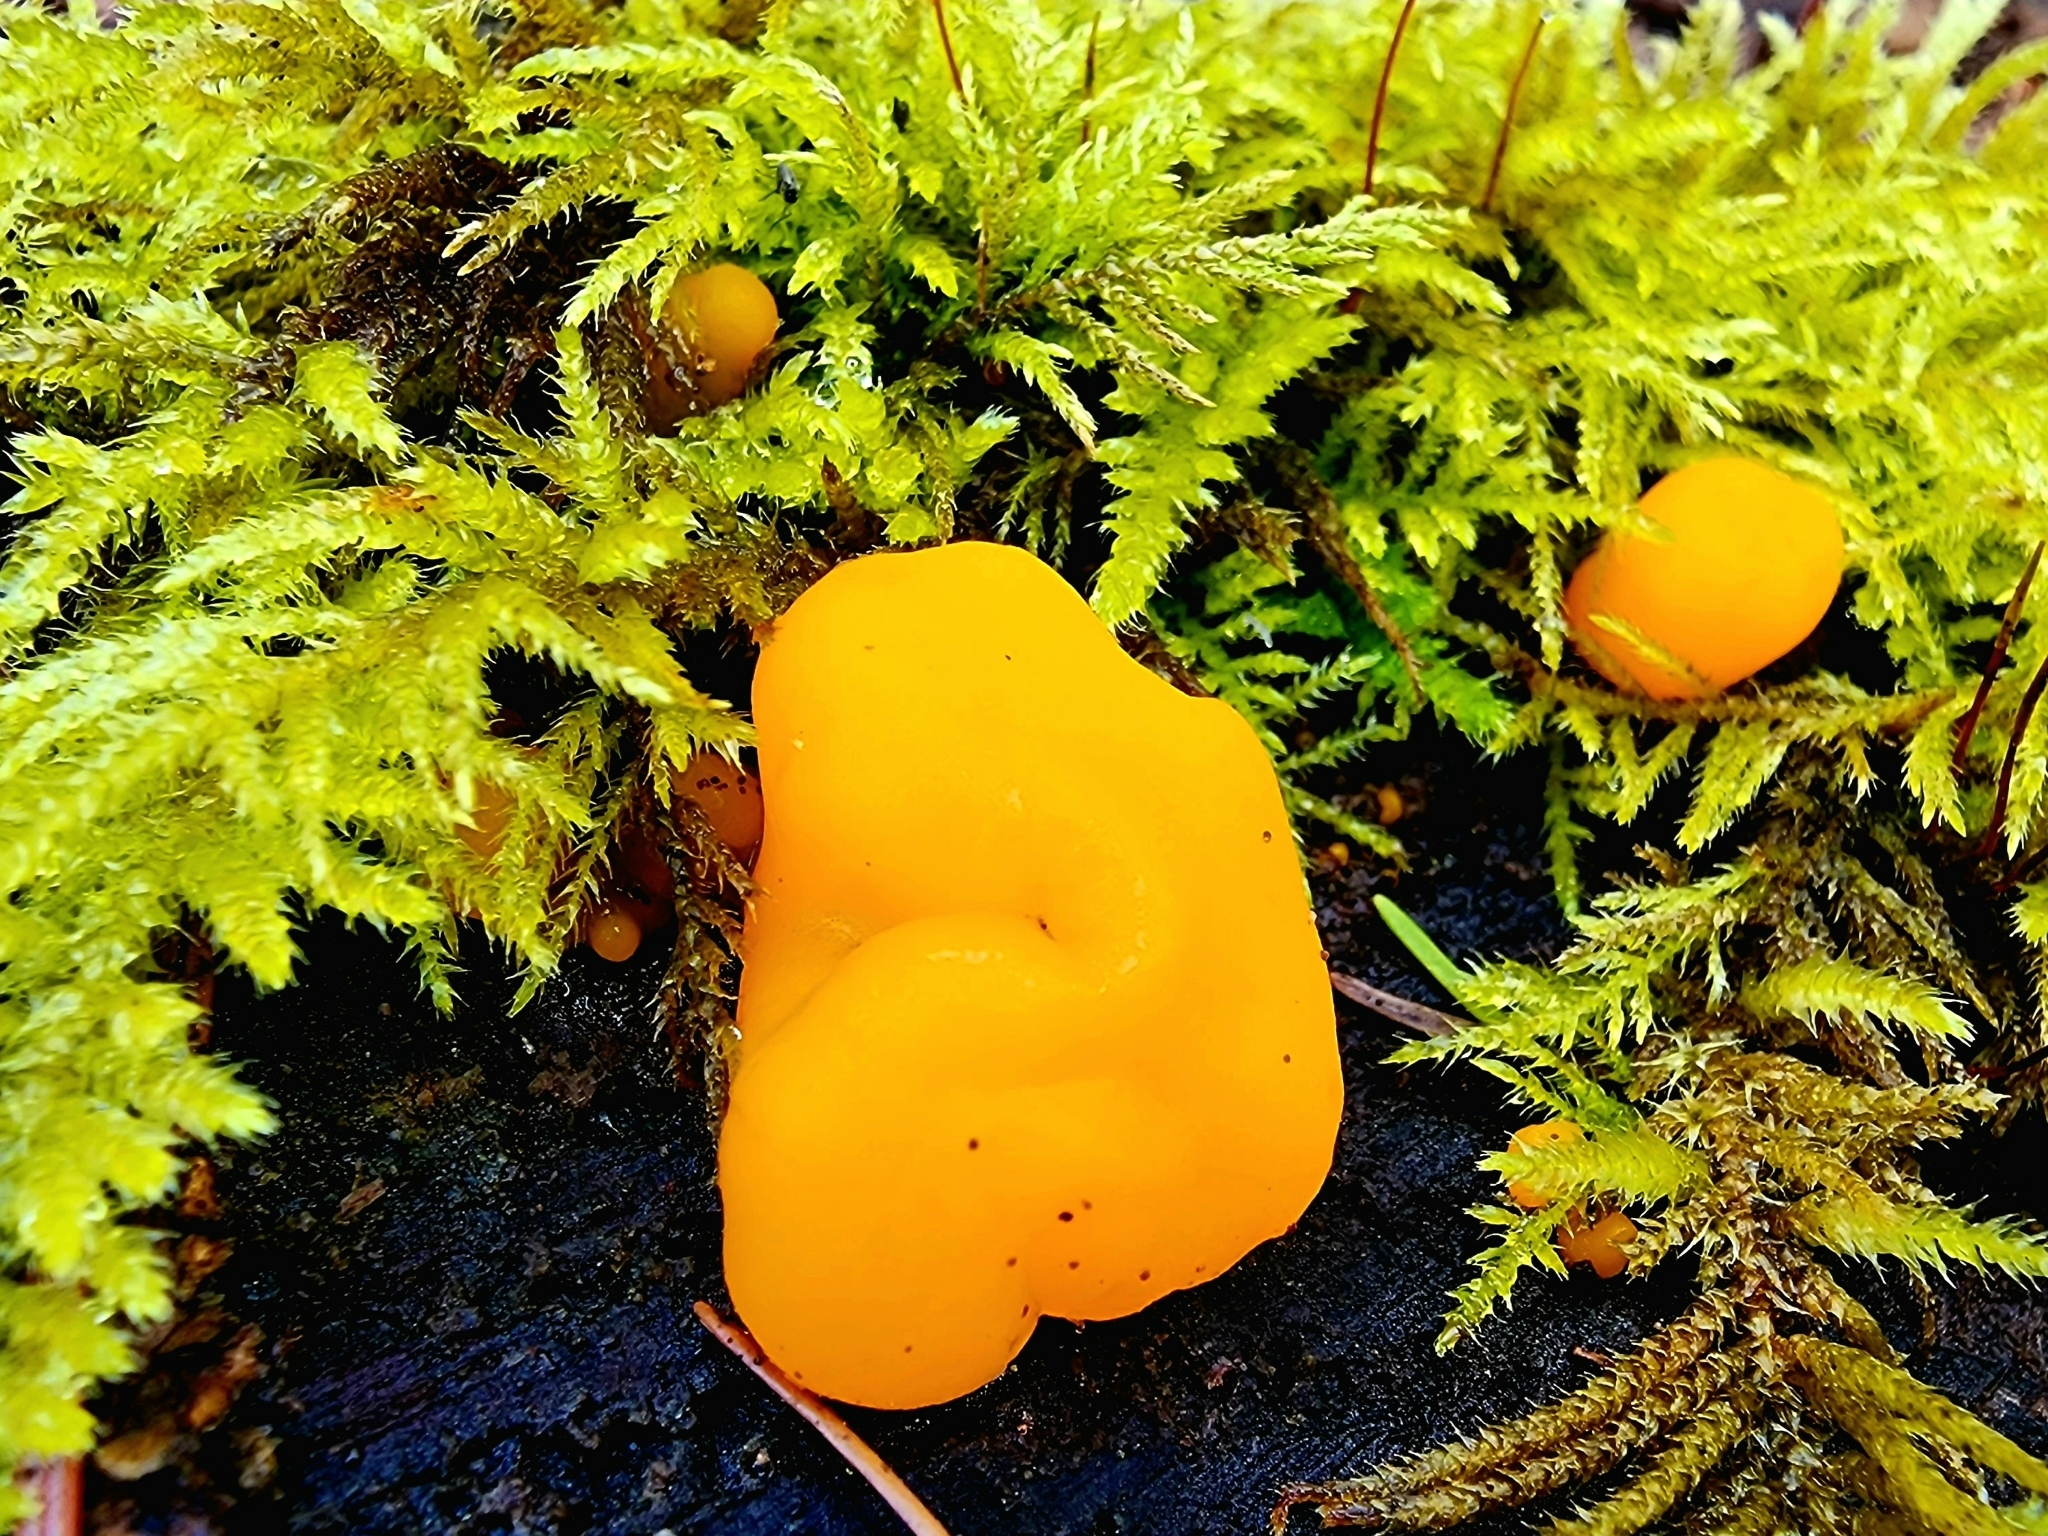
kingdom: Fungi
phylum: Basidiomycota
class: Dacrymycetes
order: Dacrymycetales
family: Dacrymycetaceae
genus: Dacrymyces
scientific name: Dacrymyces chrysospermus
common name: Orange jelly spot
